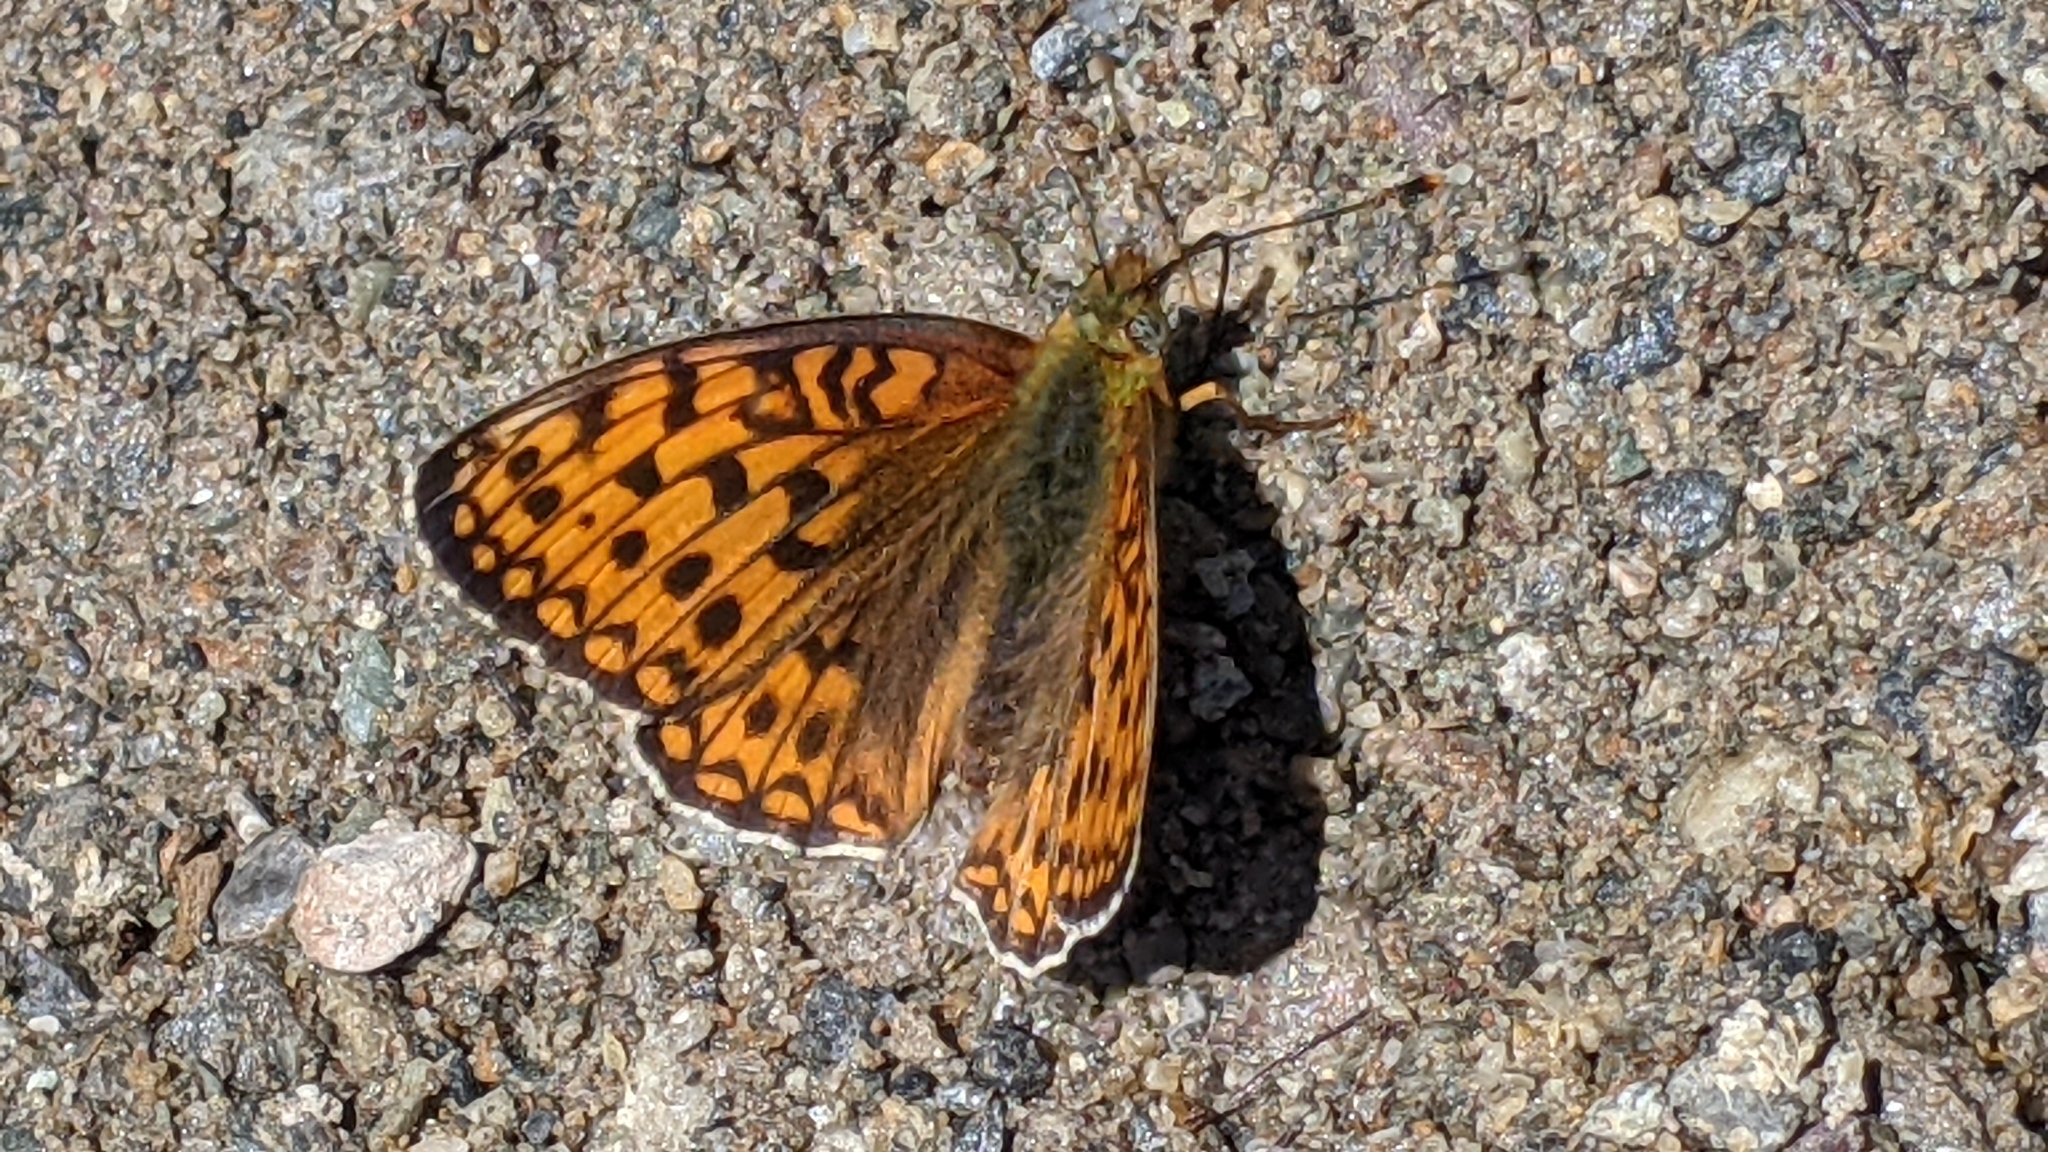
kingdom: Animalia
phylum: Arthropoda
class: Insecta
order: Lepidoptera
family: Nymphalidae
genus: Fabriciana
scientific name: Fabriciana niobe
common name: Niobe fritillary
